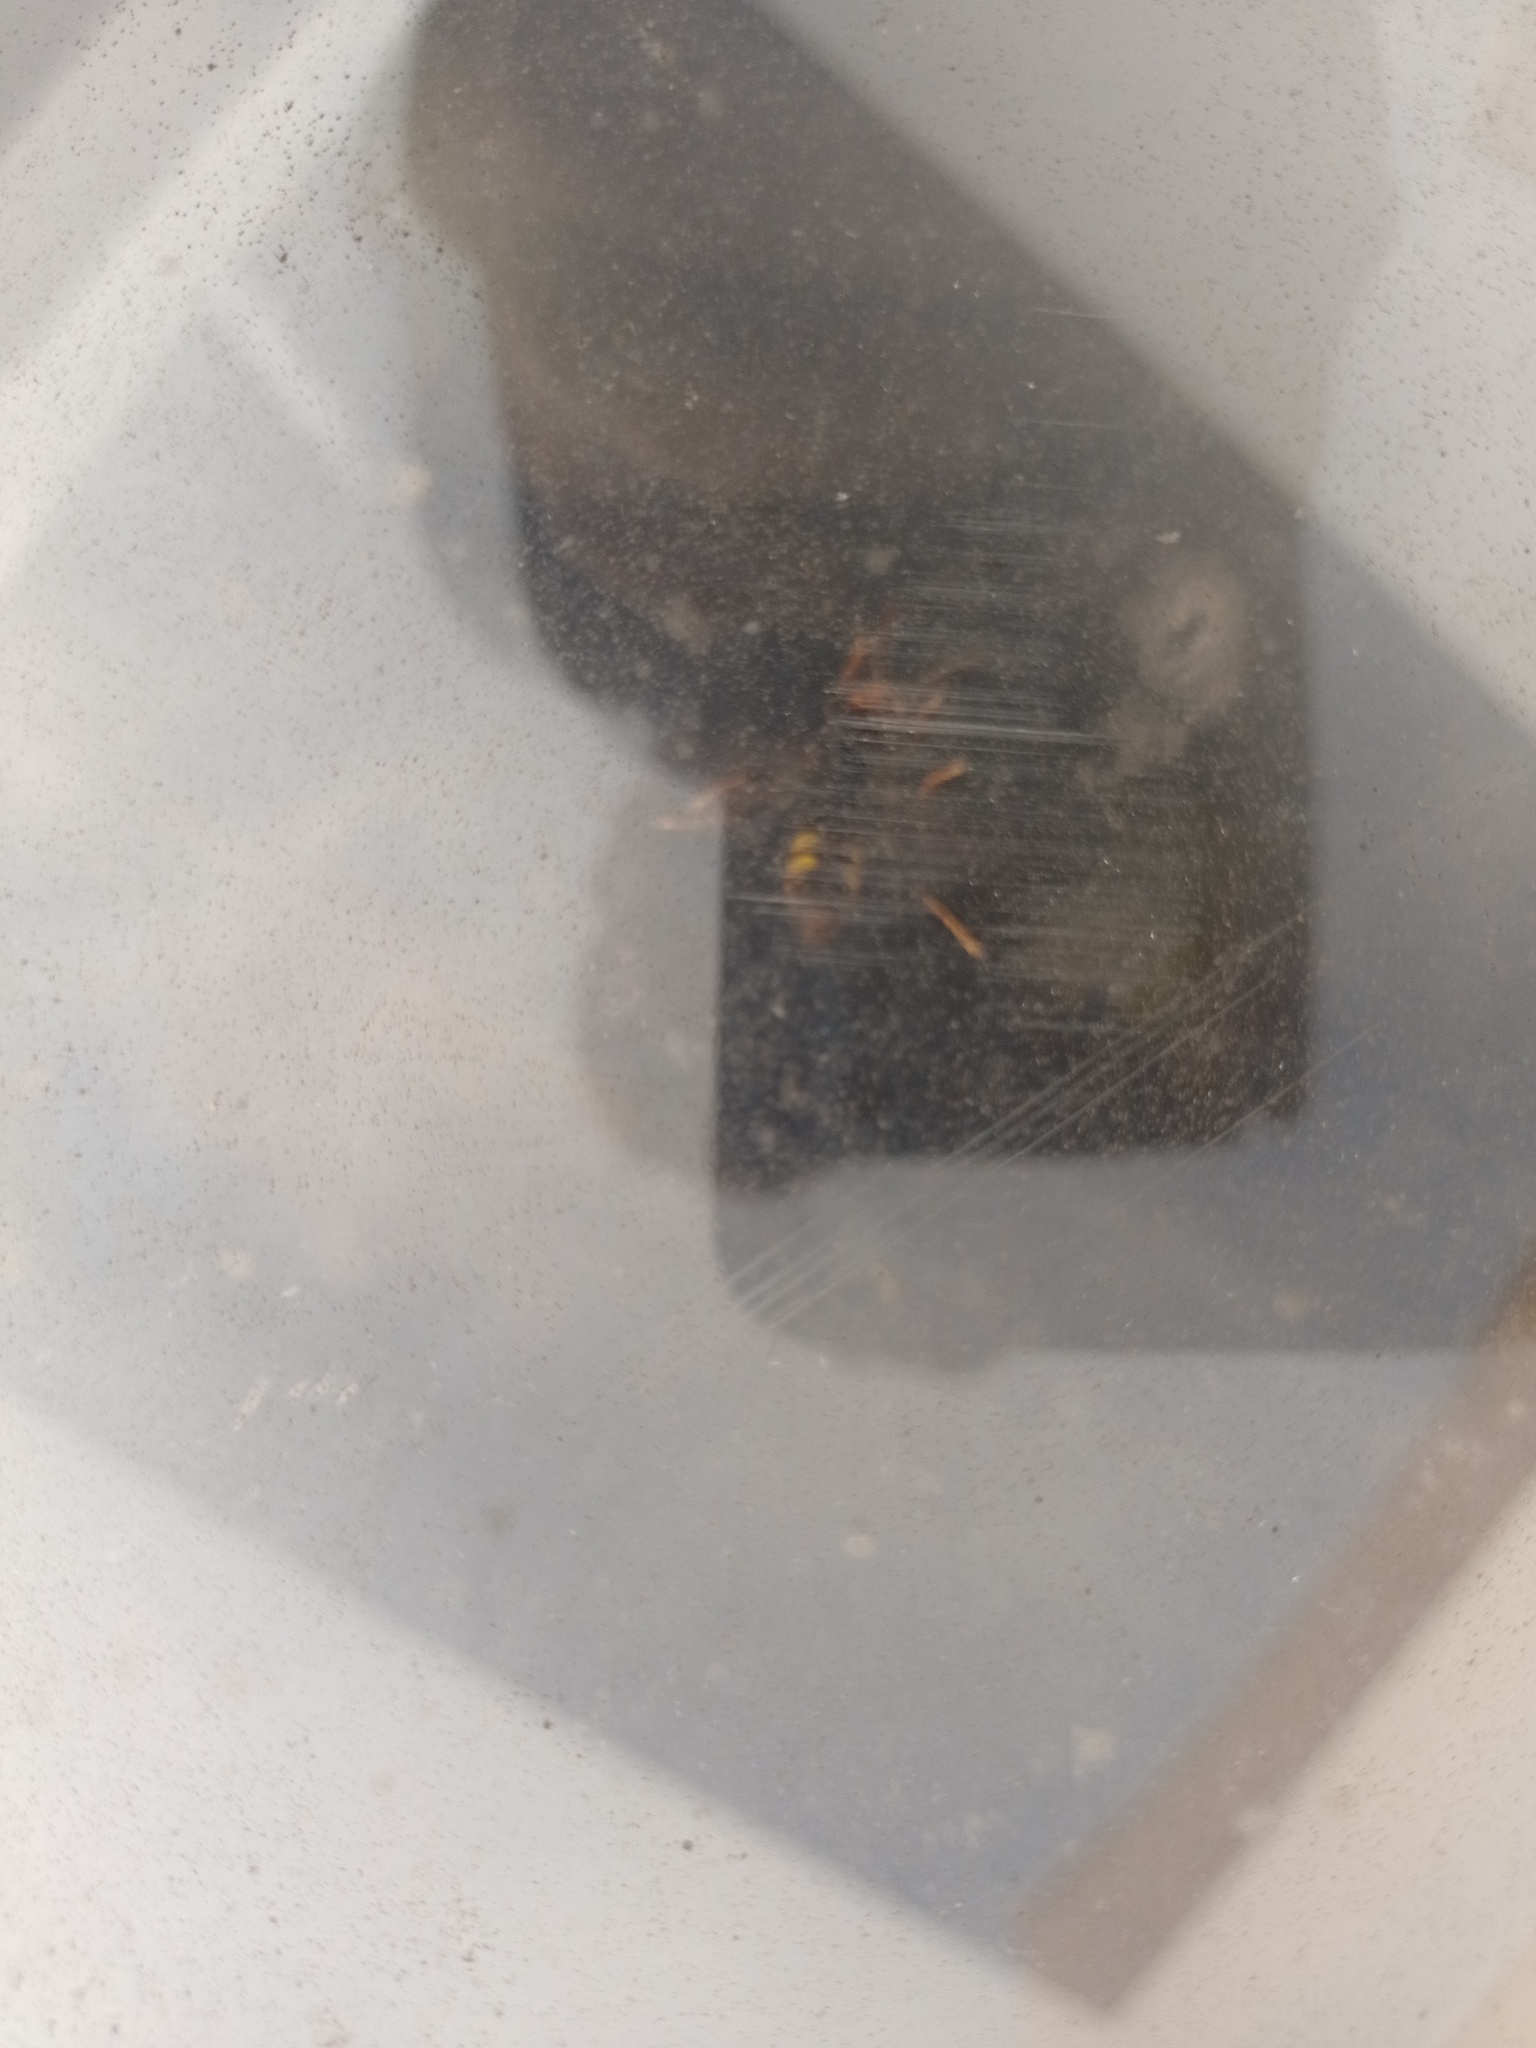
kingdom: Animalia
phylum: Arthropoda
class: Insecta
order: Hymenoptera
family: Vespidae
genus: Vespa
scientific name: Vespa velutina
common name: Asian hornet
